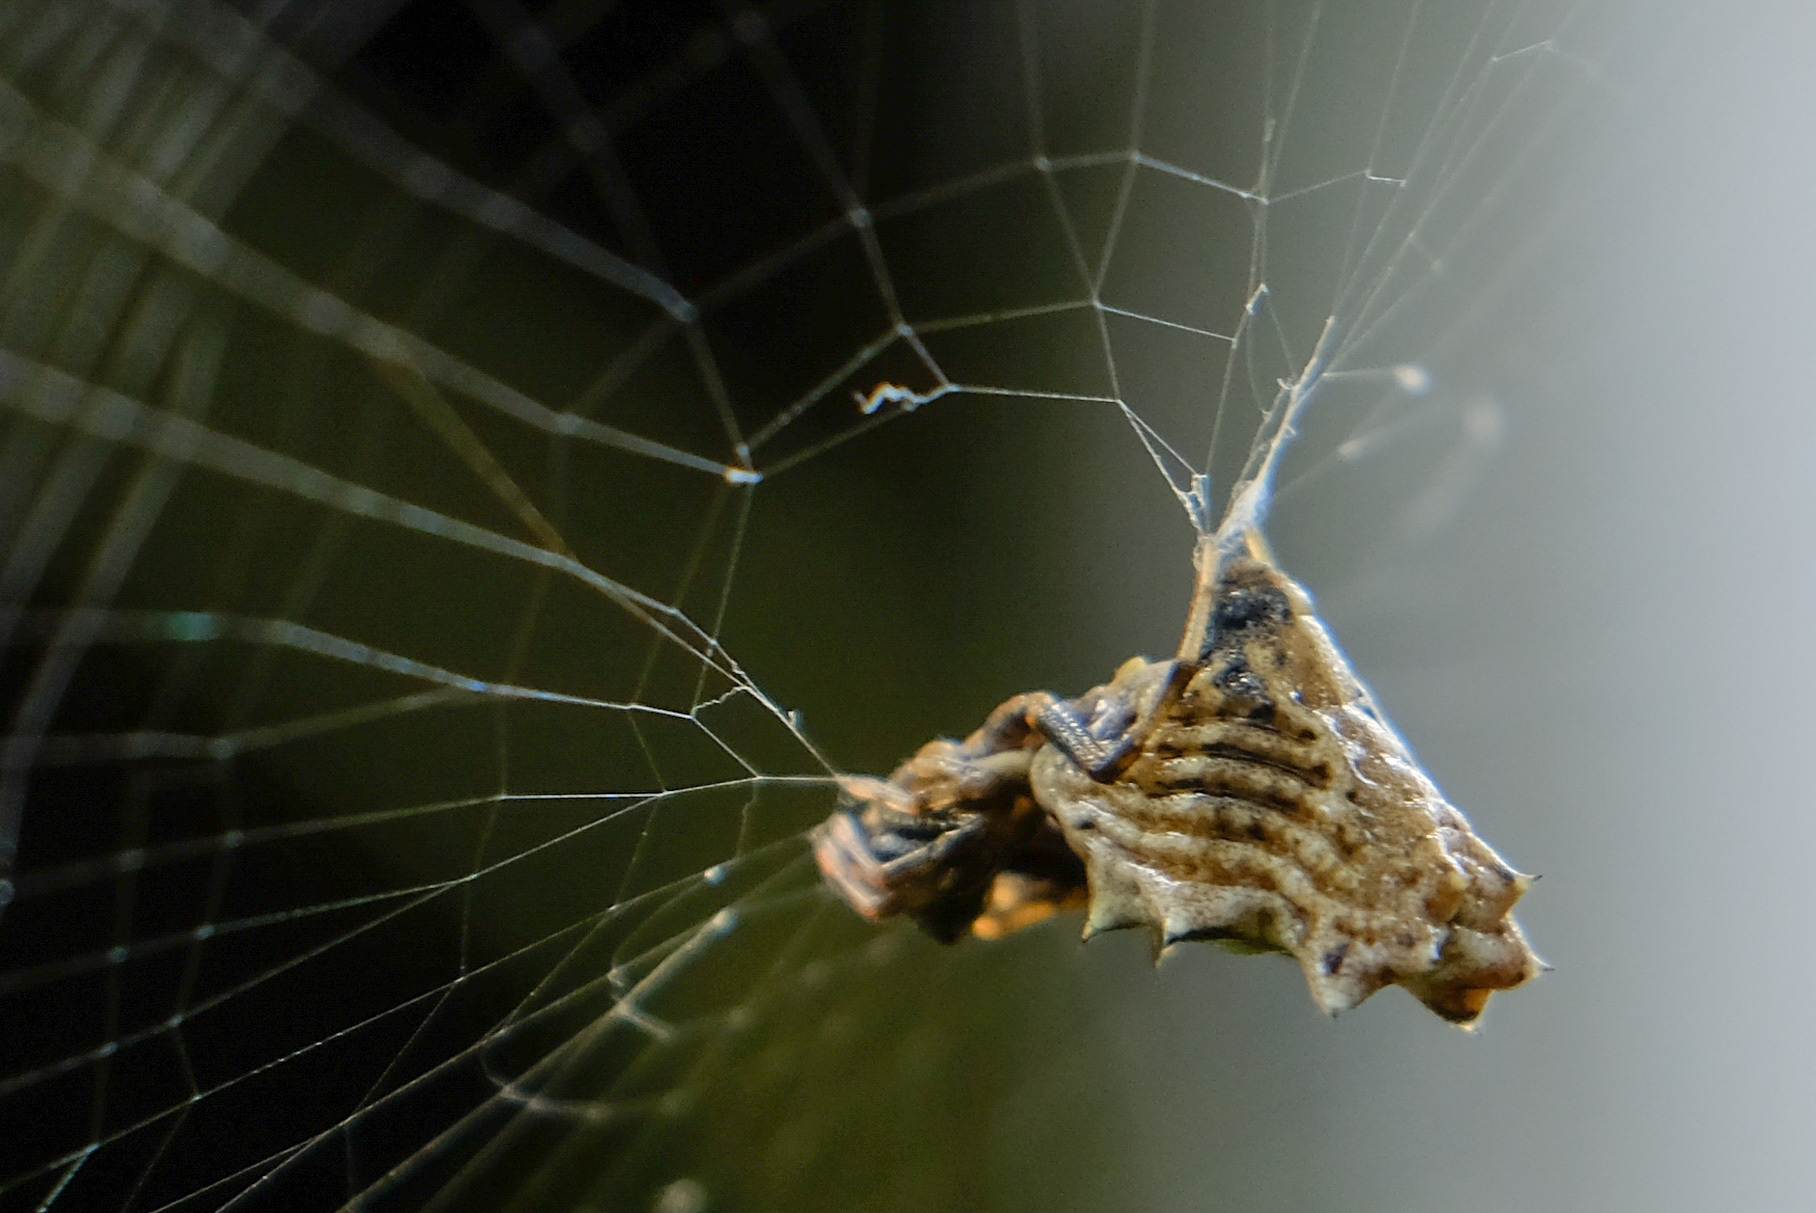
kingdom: Animalia
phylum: Arthropoda
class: Arachnida
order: Araneae
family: Araneidae
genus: Micrathena
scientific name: Micrathena gracilis
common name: Orb weavers
